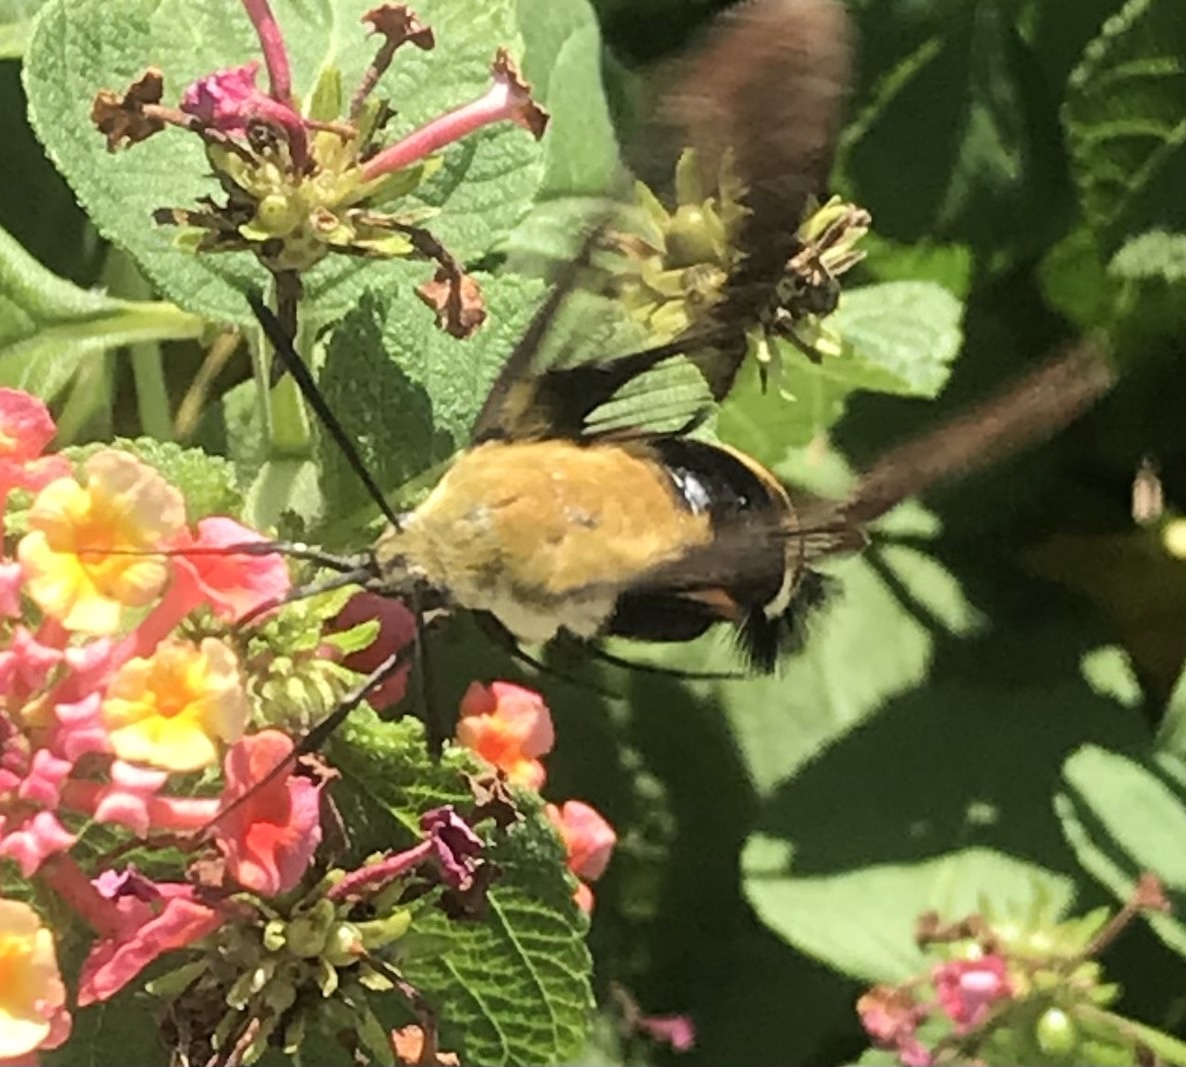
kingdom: Animalia
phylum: Arthropoda
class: Insecta
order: Lepidoptera
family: Sphingidae
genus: Hemaris
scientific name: Hemaris diffinis
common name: Bumblebee moth
